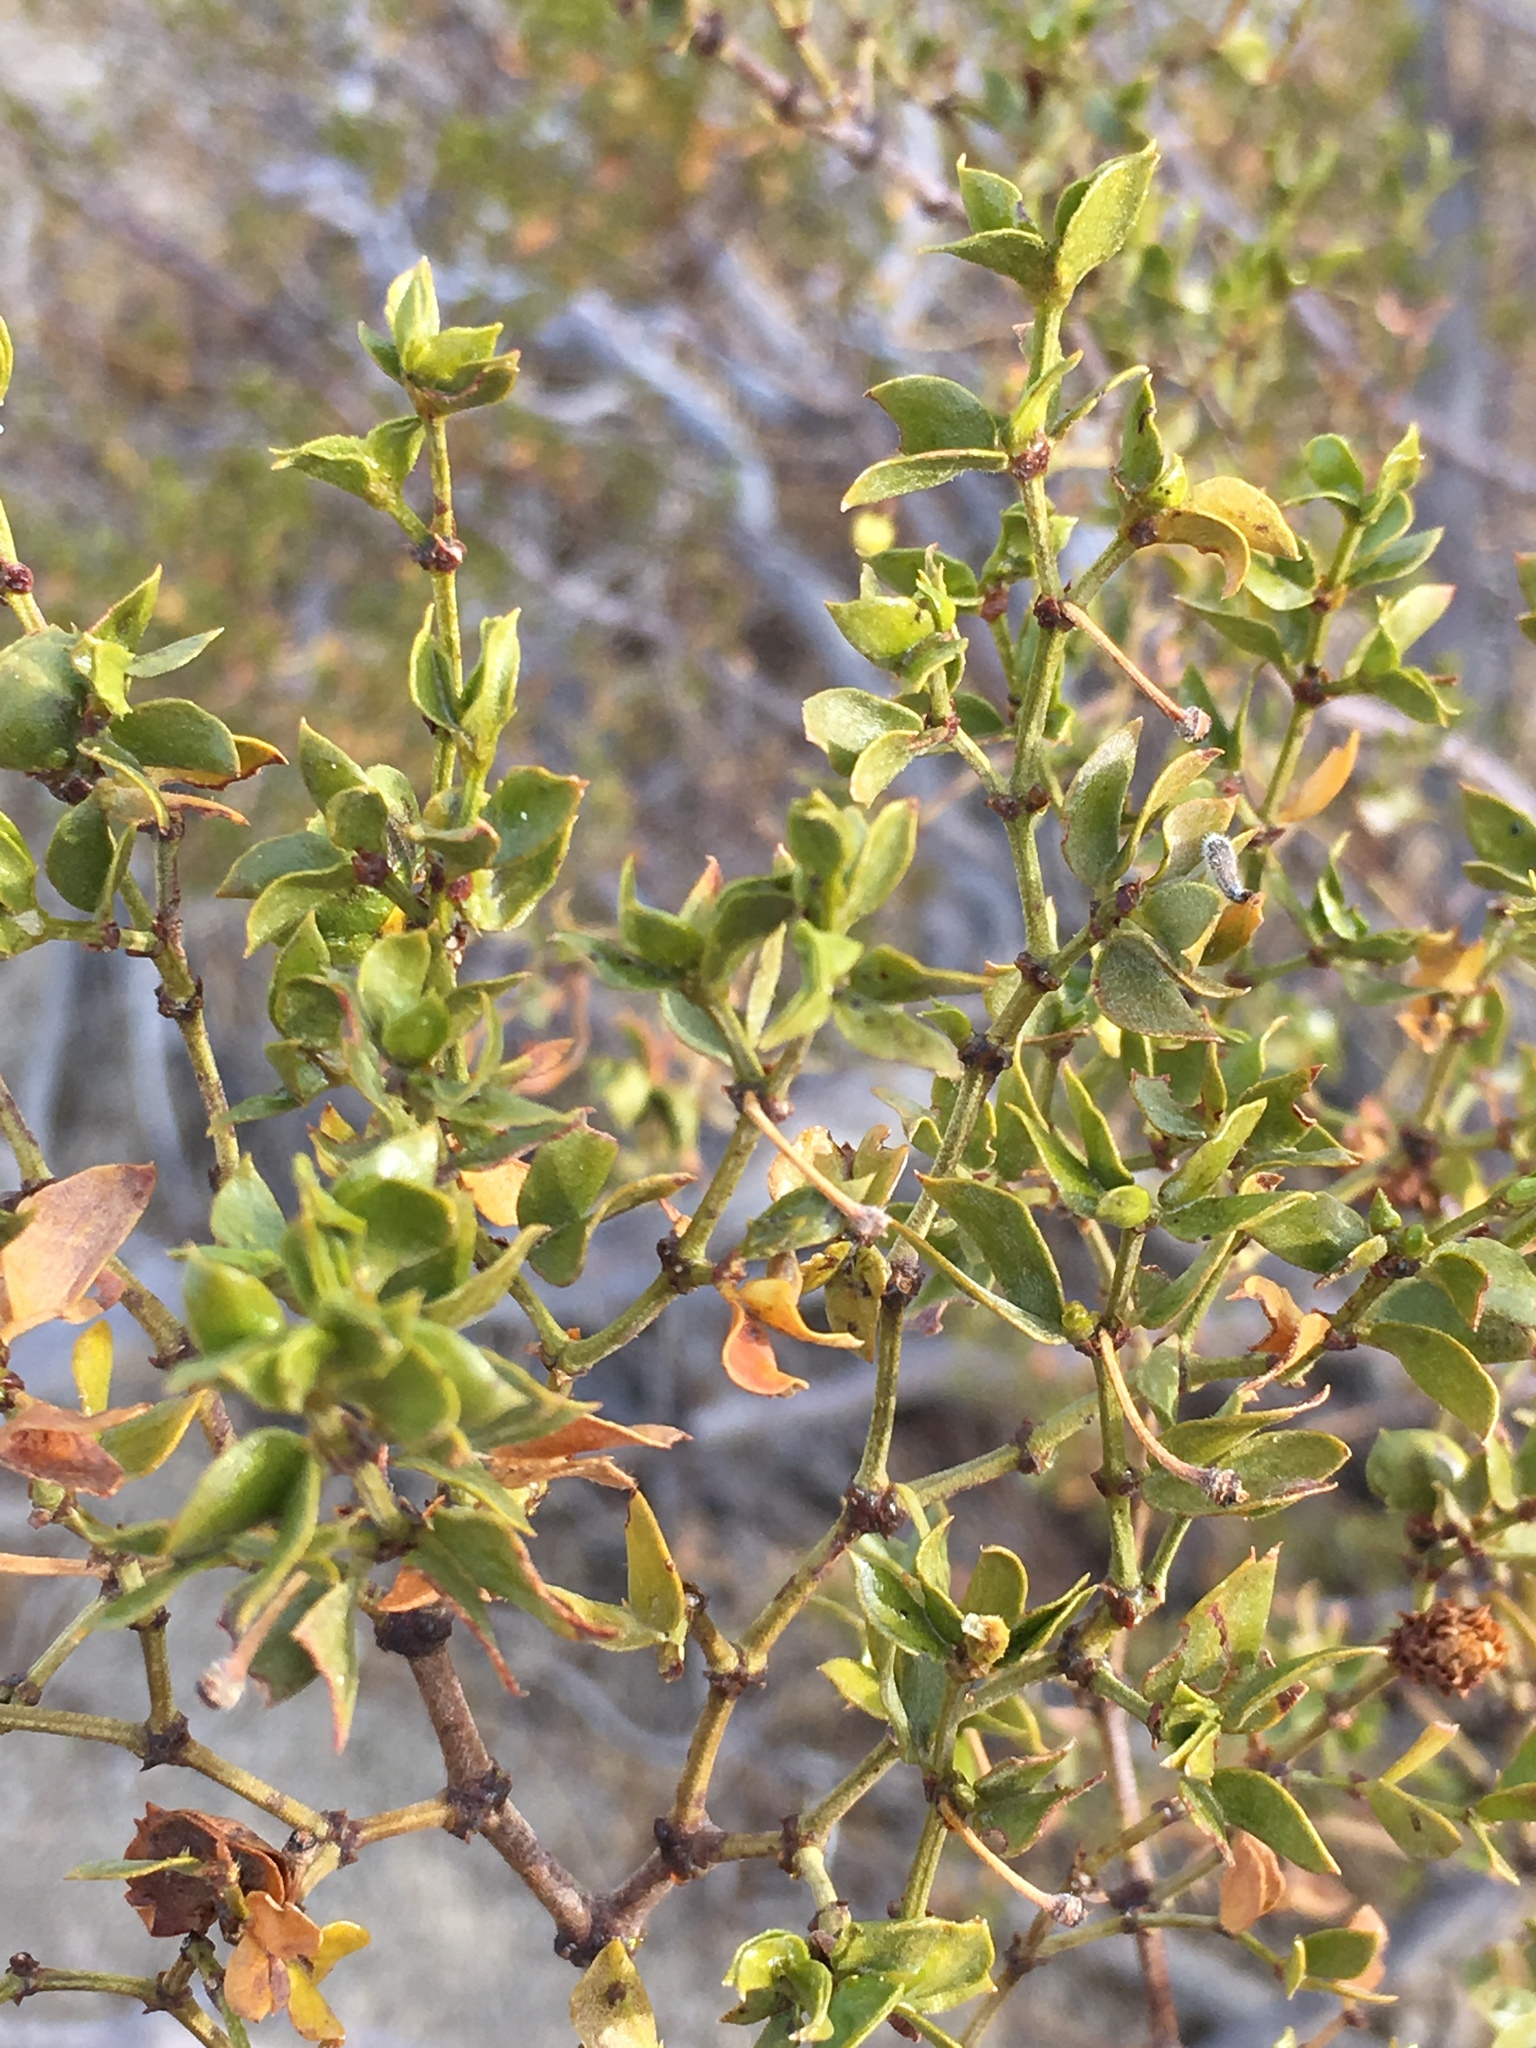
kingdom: Plantae
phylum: Tracheophyta
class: Magnoliopsida
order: Zygophyllales
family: Zygophyllaceae
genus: Larrea
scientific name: Larrea tridentata
